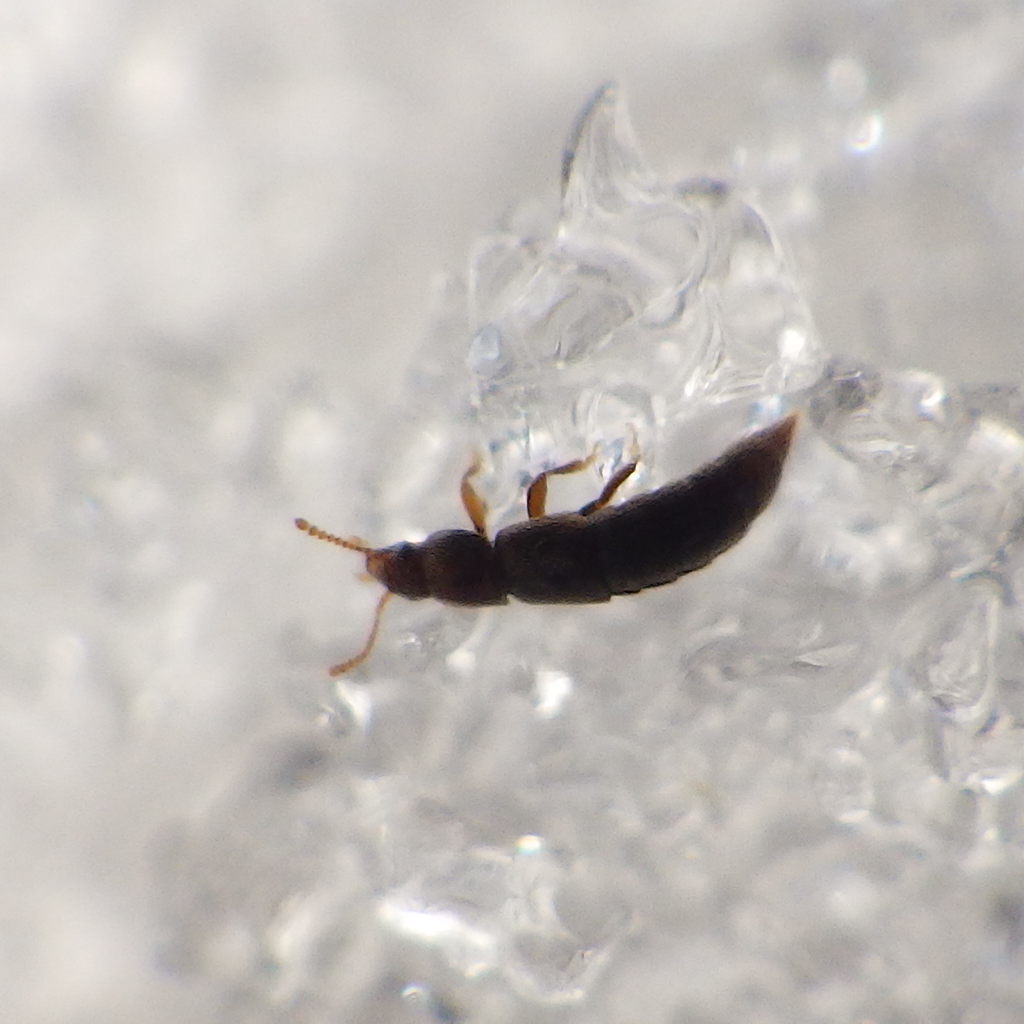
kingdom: Animalia
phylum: Arthropoda
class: Insecta
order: Coleoptera
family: Staphylinidae
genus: Phloeocharis
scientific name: Phloeocharis subtilissima
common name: Staph beetle
